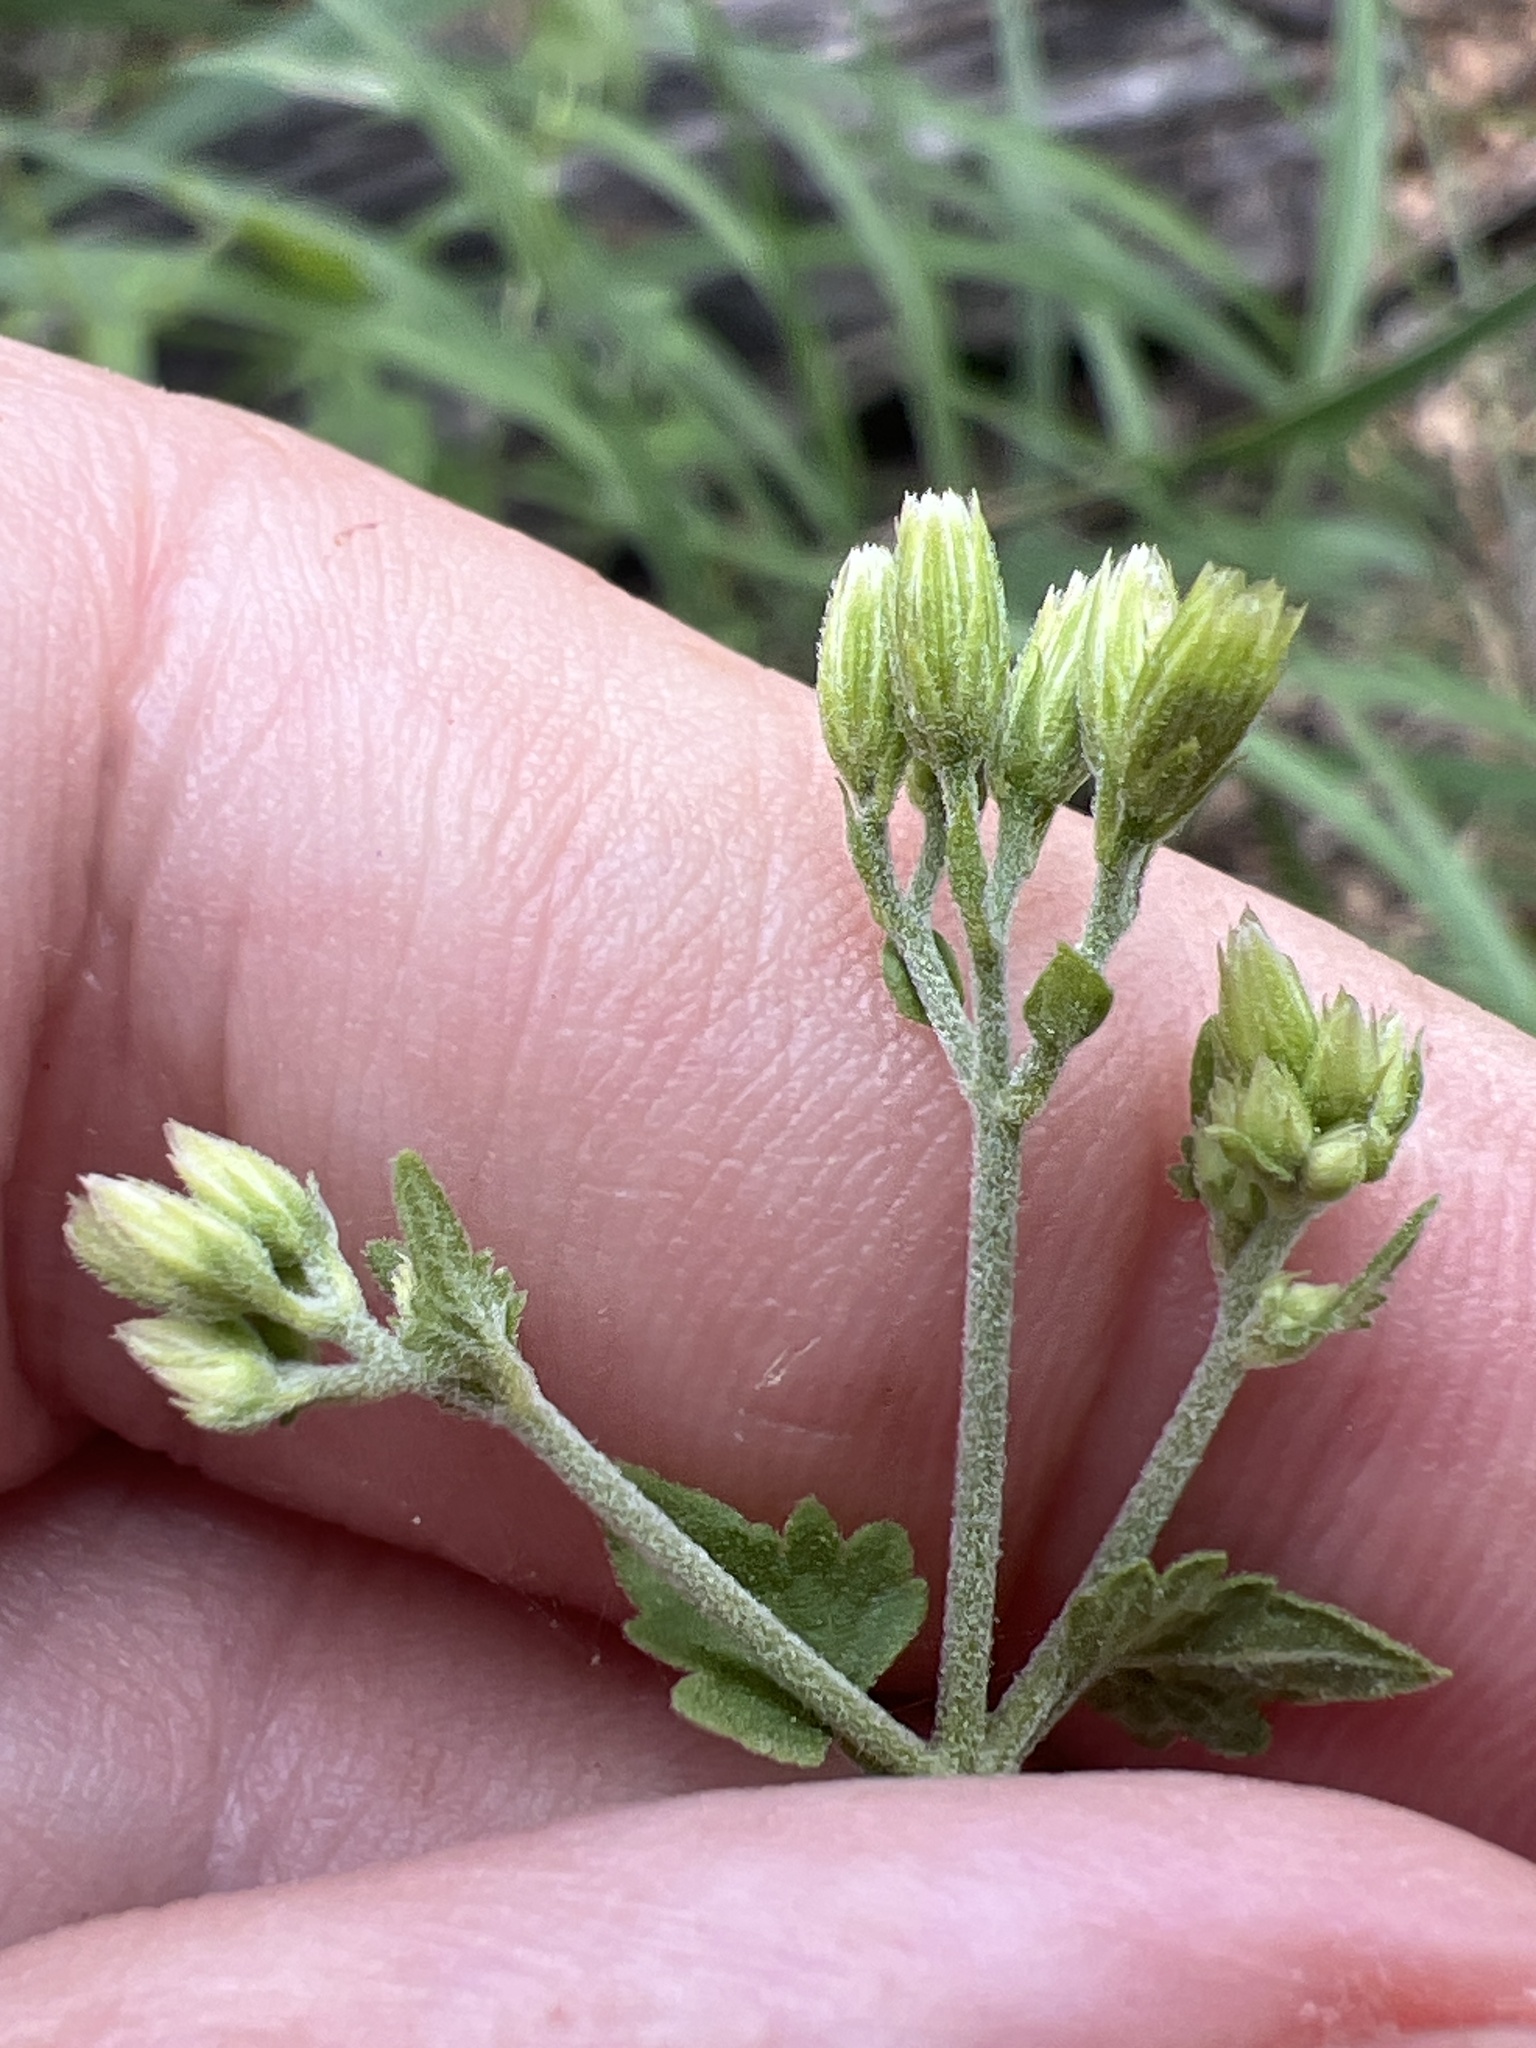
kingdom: Plantae
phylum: Tracheophyta
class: Magnoliopsida
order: Asterales
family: Asteraceae
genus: Fleischmannia
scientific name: Fleischmannia incarnata
